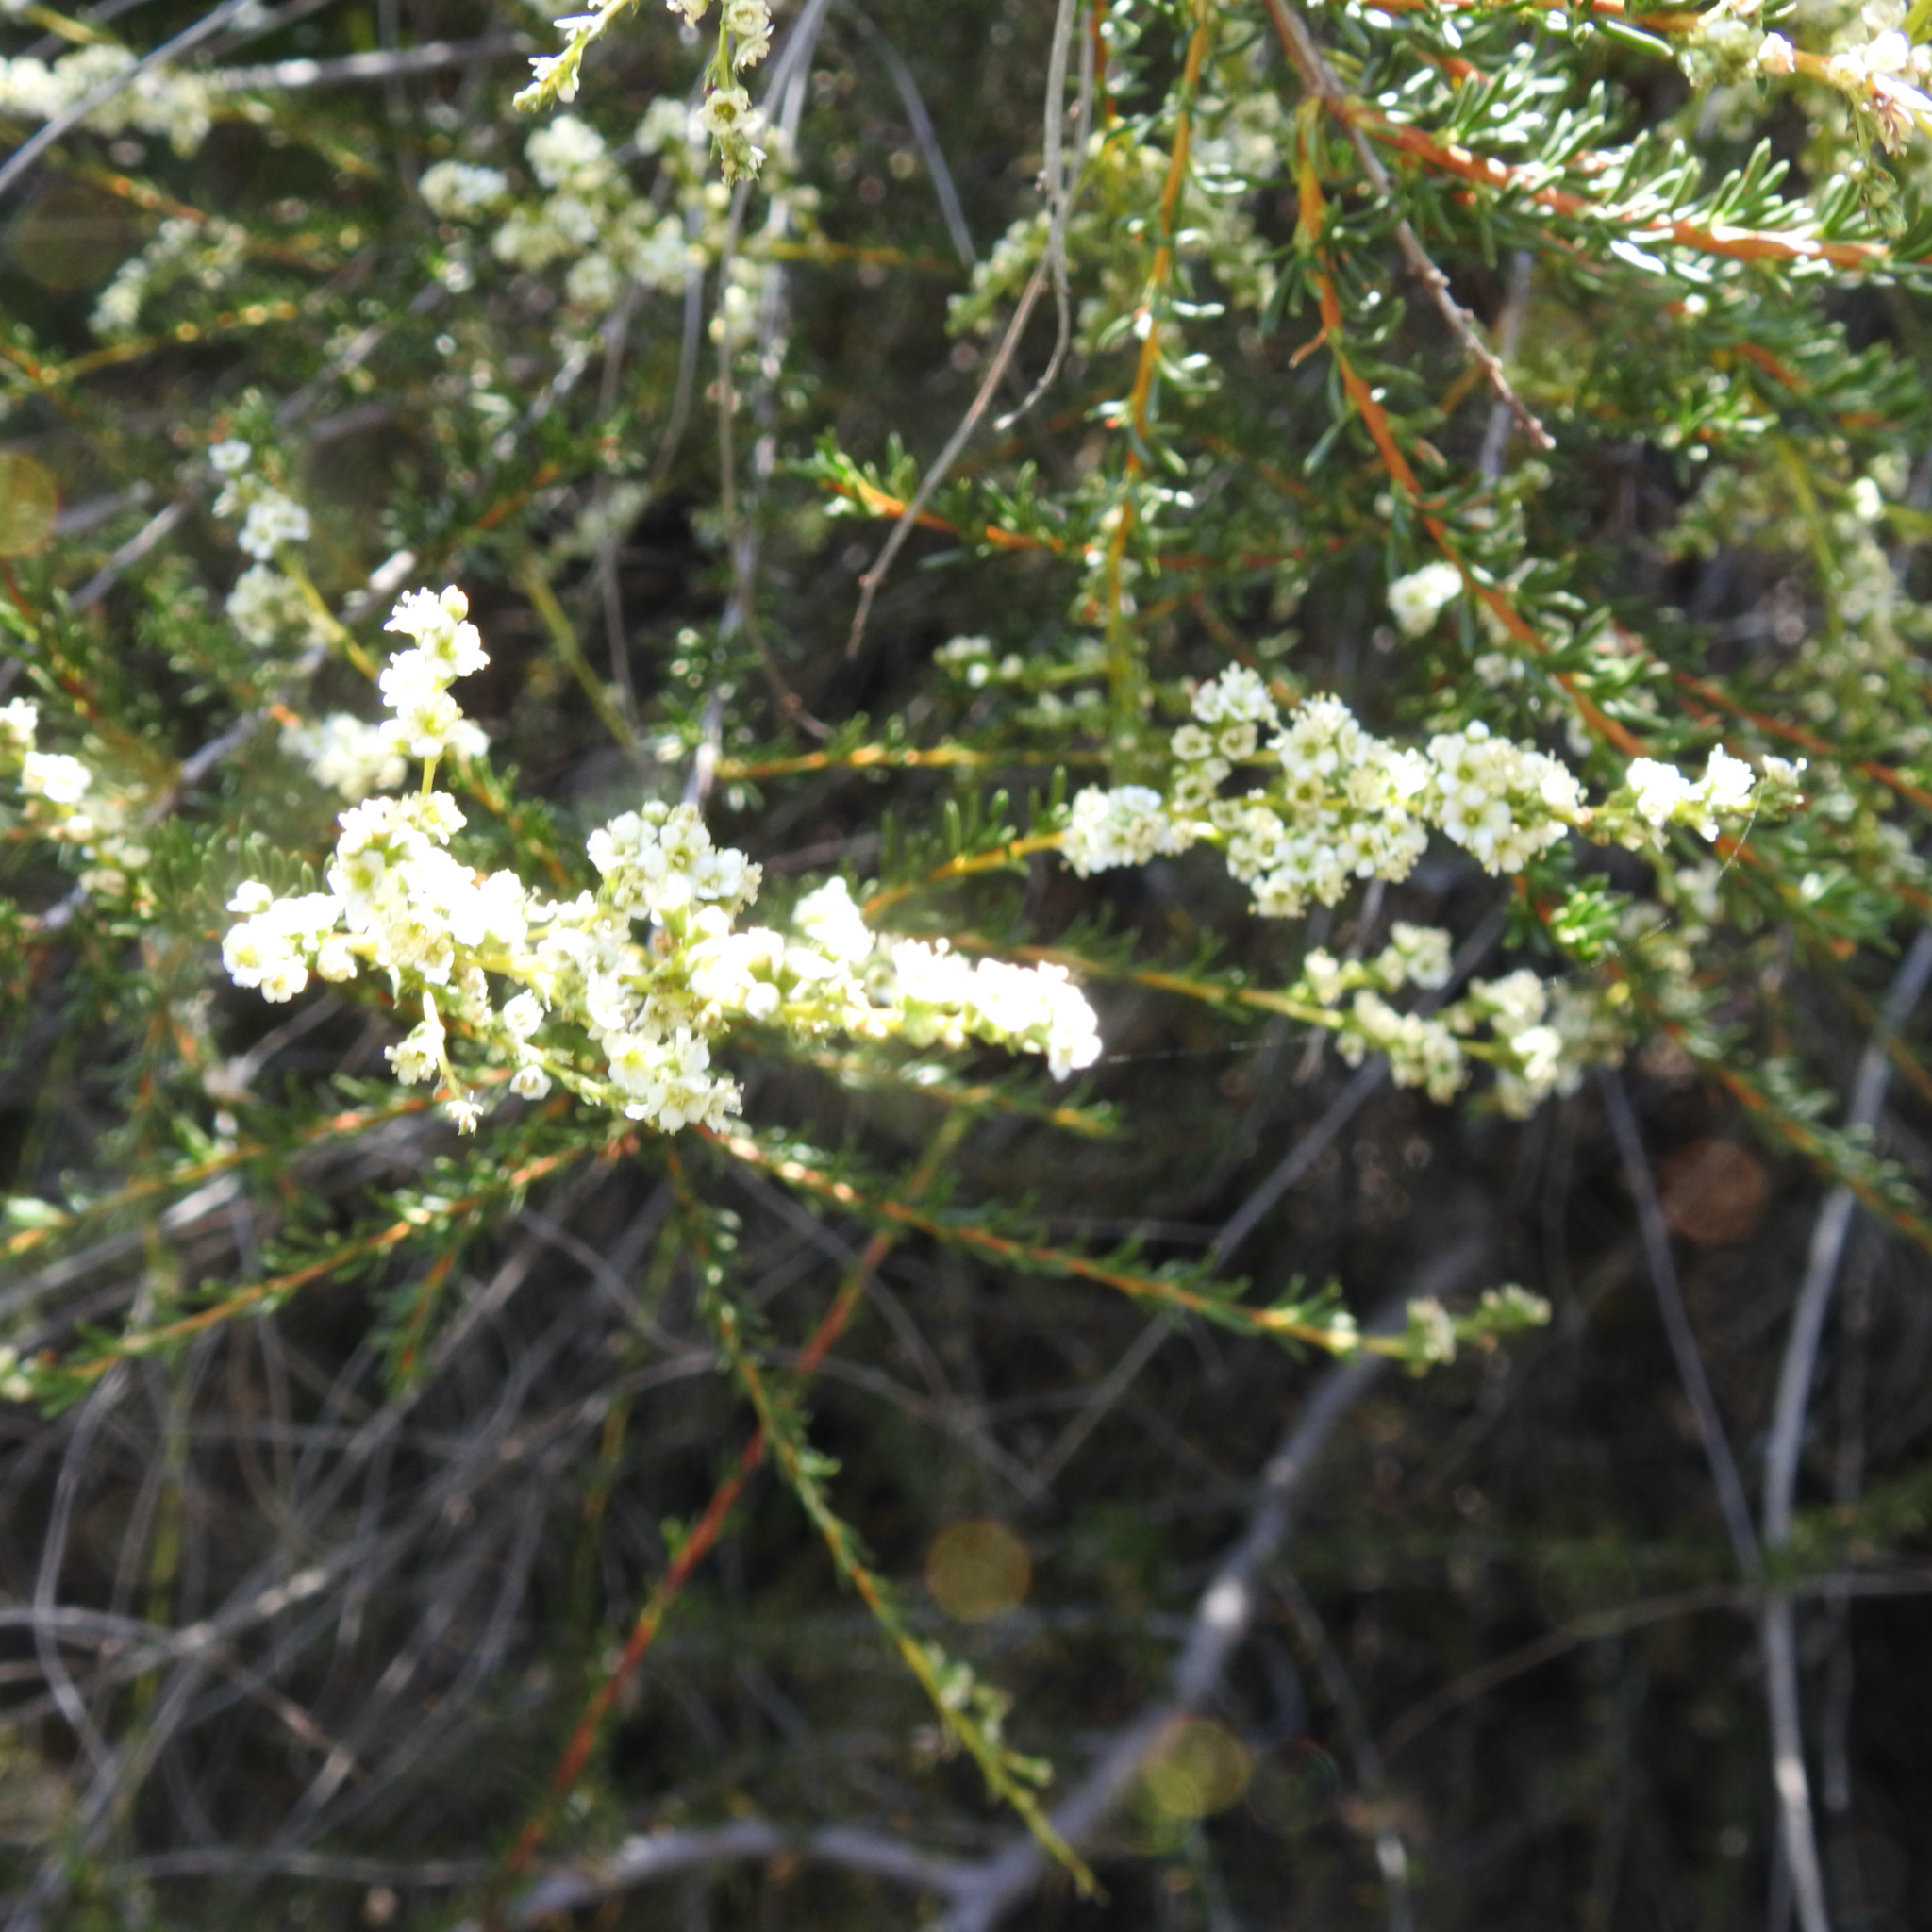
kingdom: Plantae
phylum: Tracheophyta
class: Magnoliopsida
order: Rosales
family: Rosaceae
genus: Adenostoma
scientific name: Adenostoma fasciculatum
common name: Chamise
